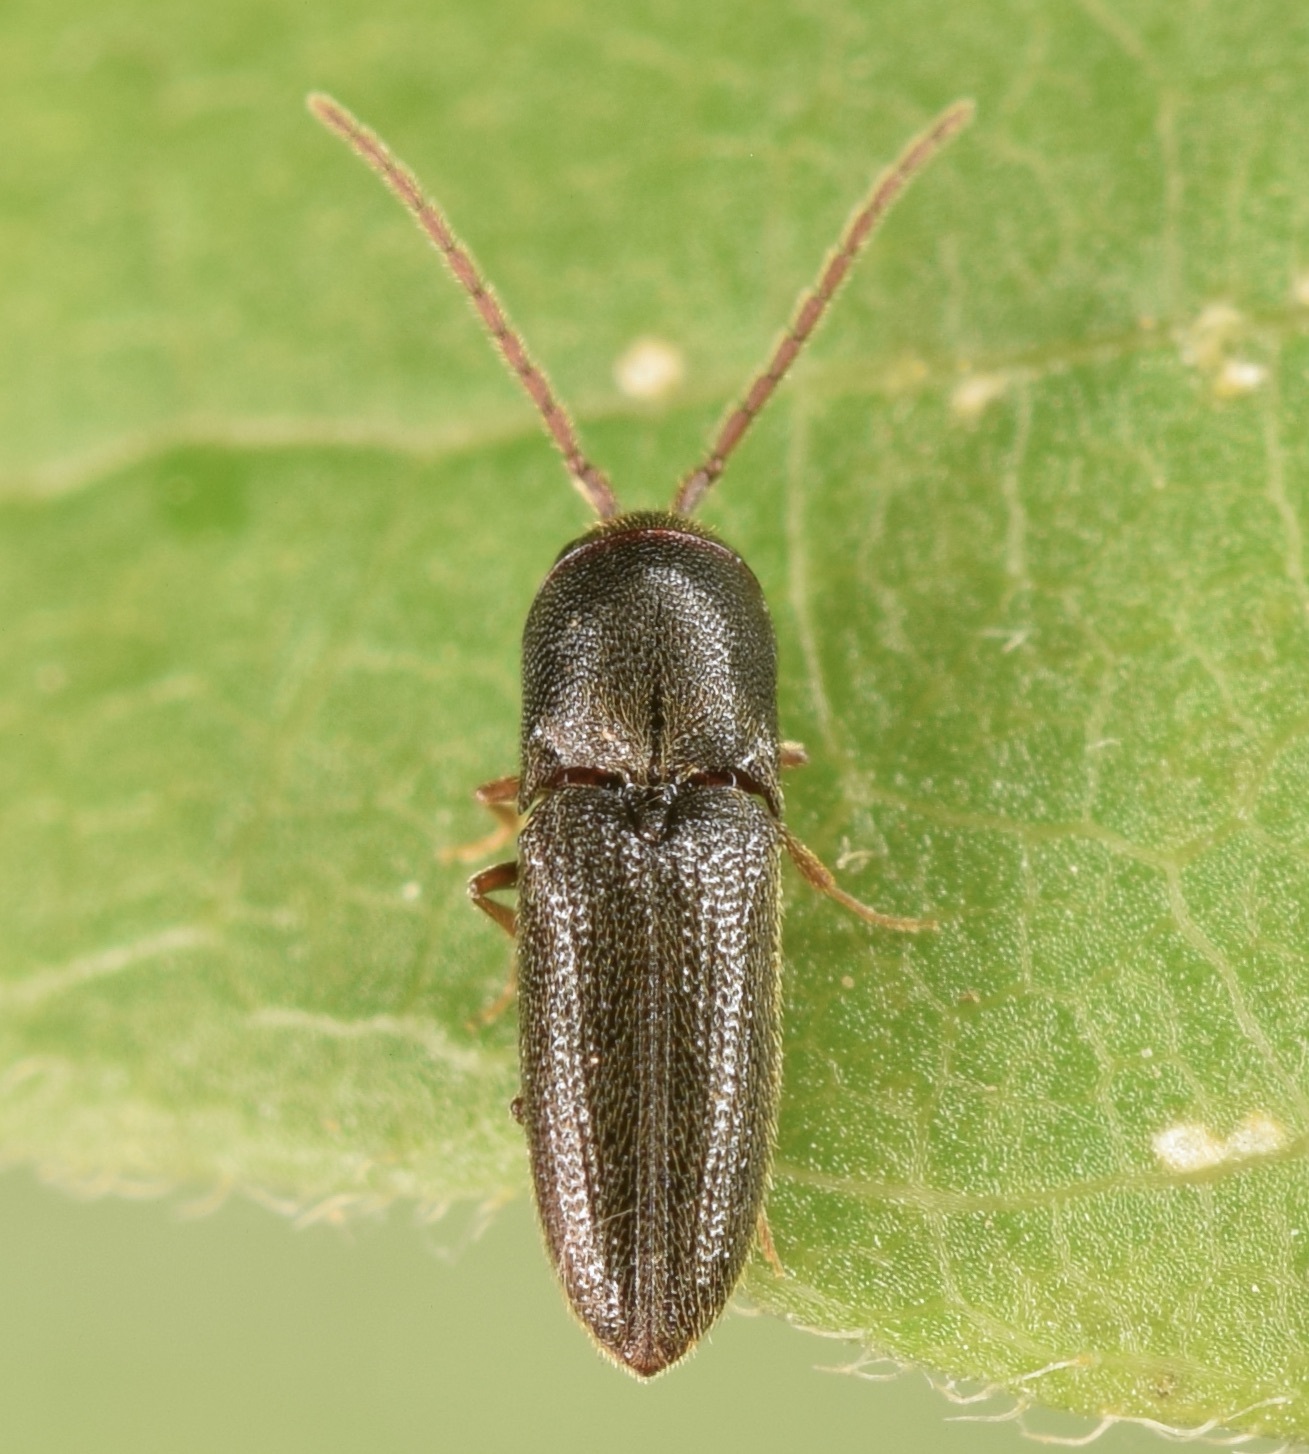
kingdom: Animalia
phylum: Arthropoda
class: Insecta
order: Coleoptera
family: Eucnemidae
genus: Rhagomicrus
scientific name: Rhagomicrus humeralis
